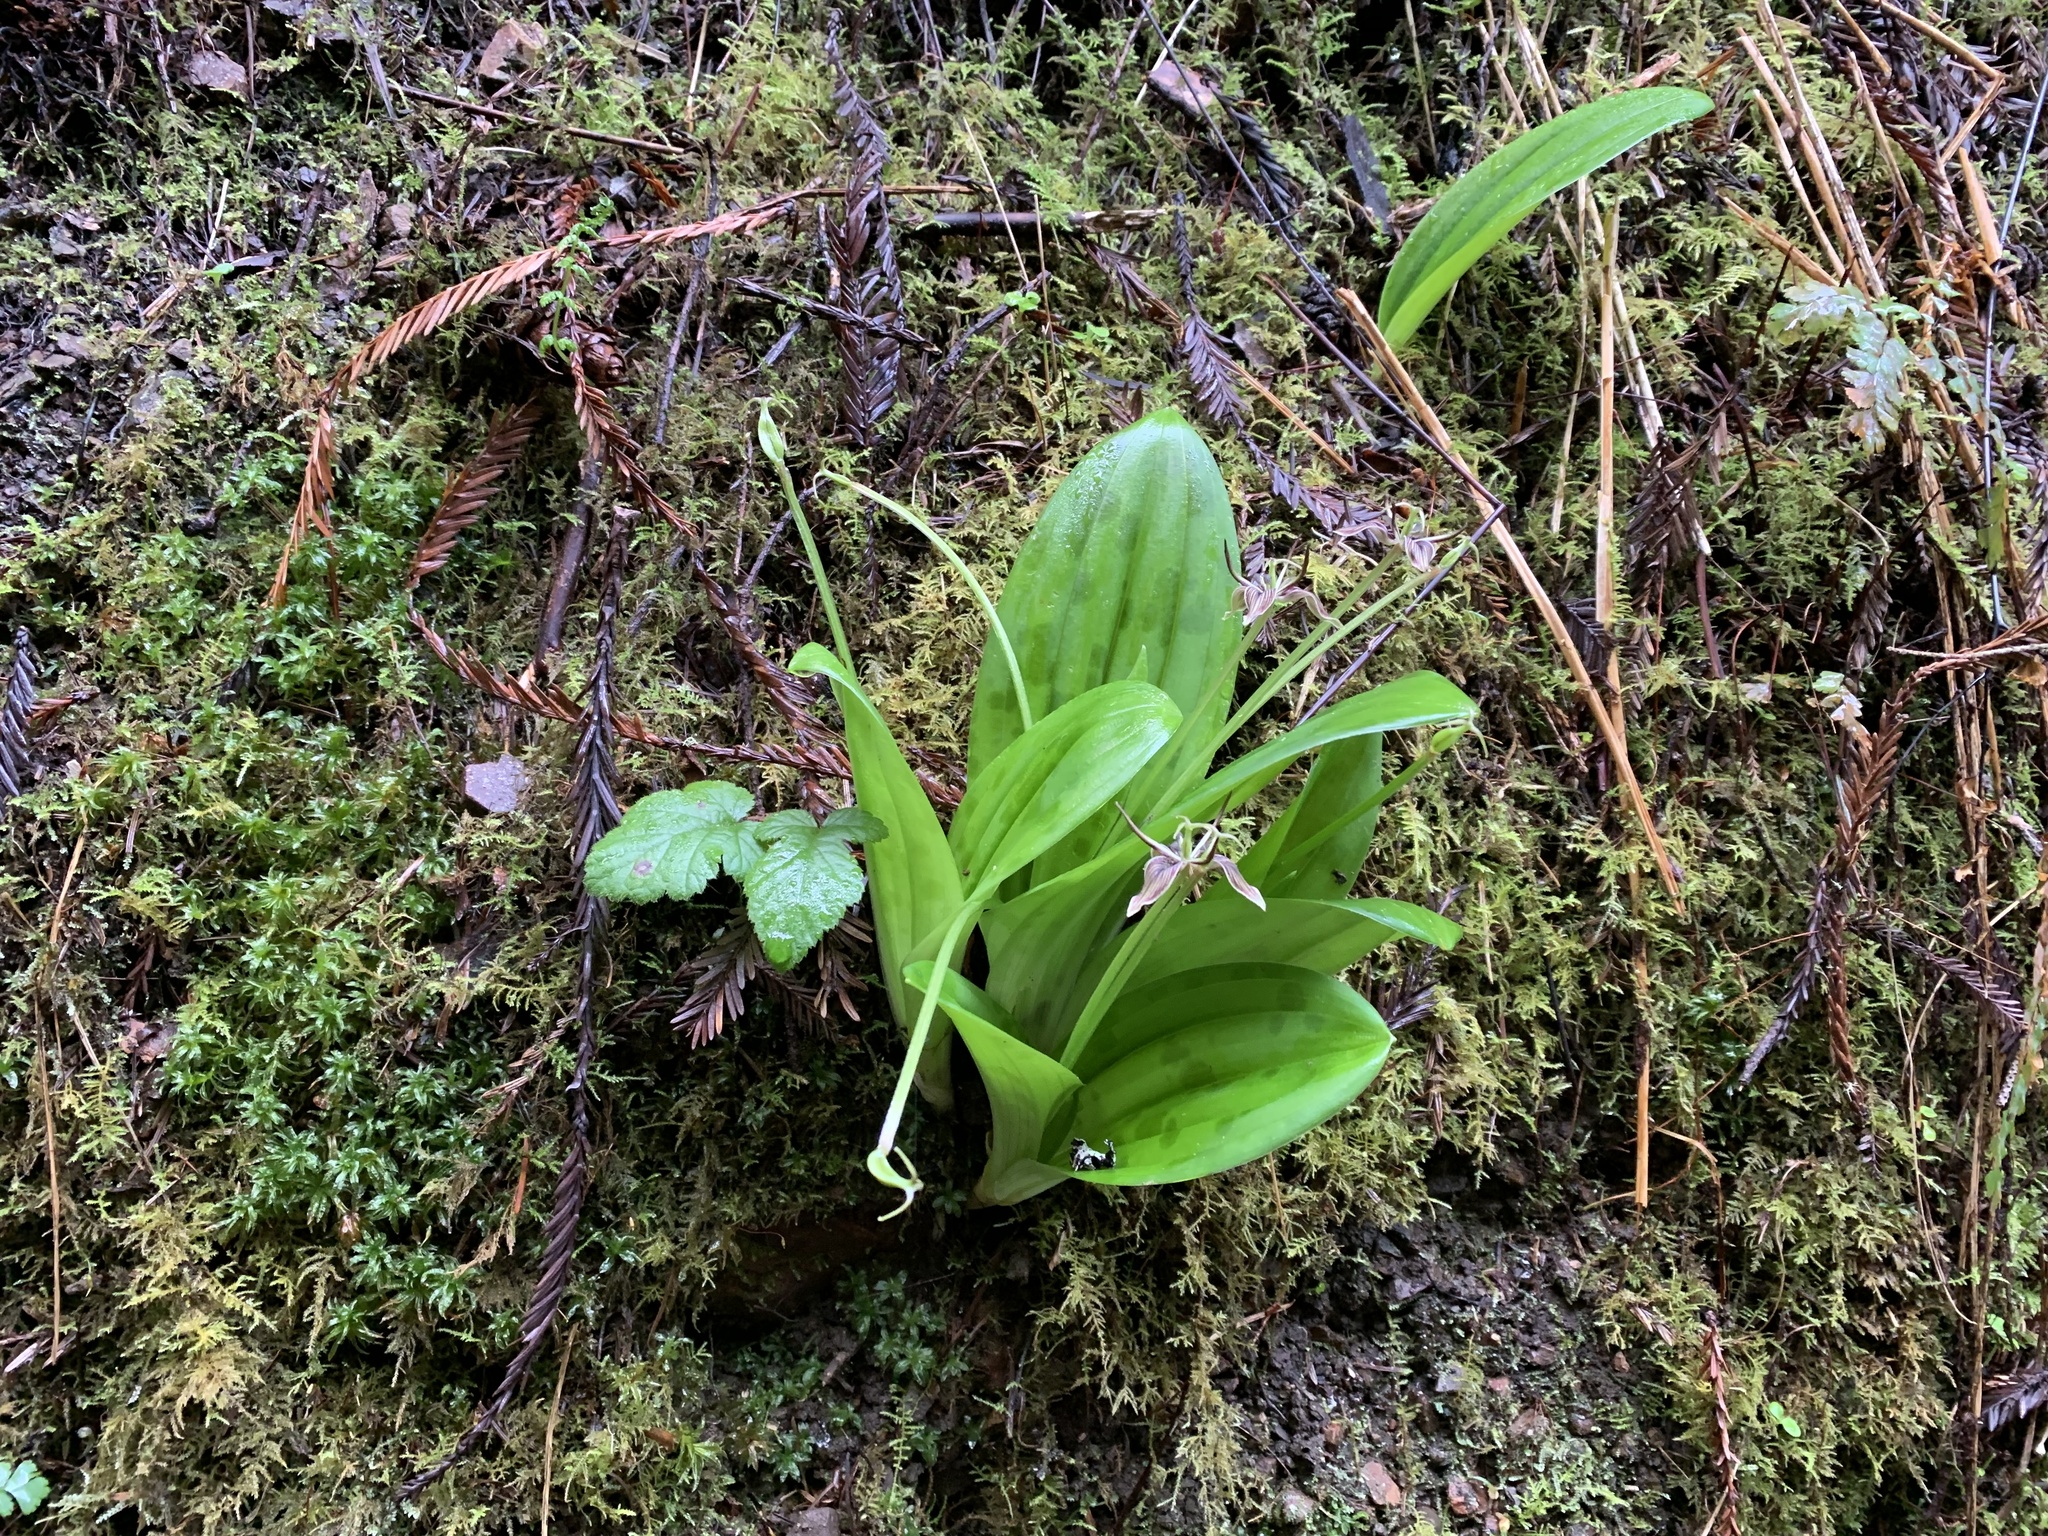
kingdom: Plantae
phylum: Tracheophyta
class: Liliopsida
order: Liliales
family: Liliaceae
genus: Scoliopus
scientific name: Scoliopus bigelovii
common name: Foetid adder's-tongue
